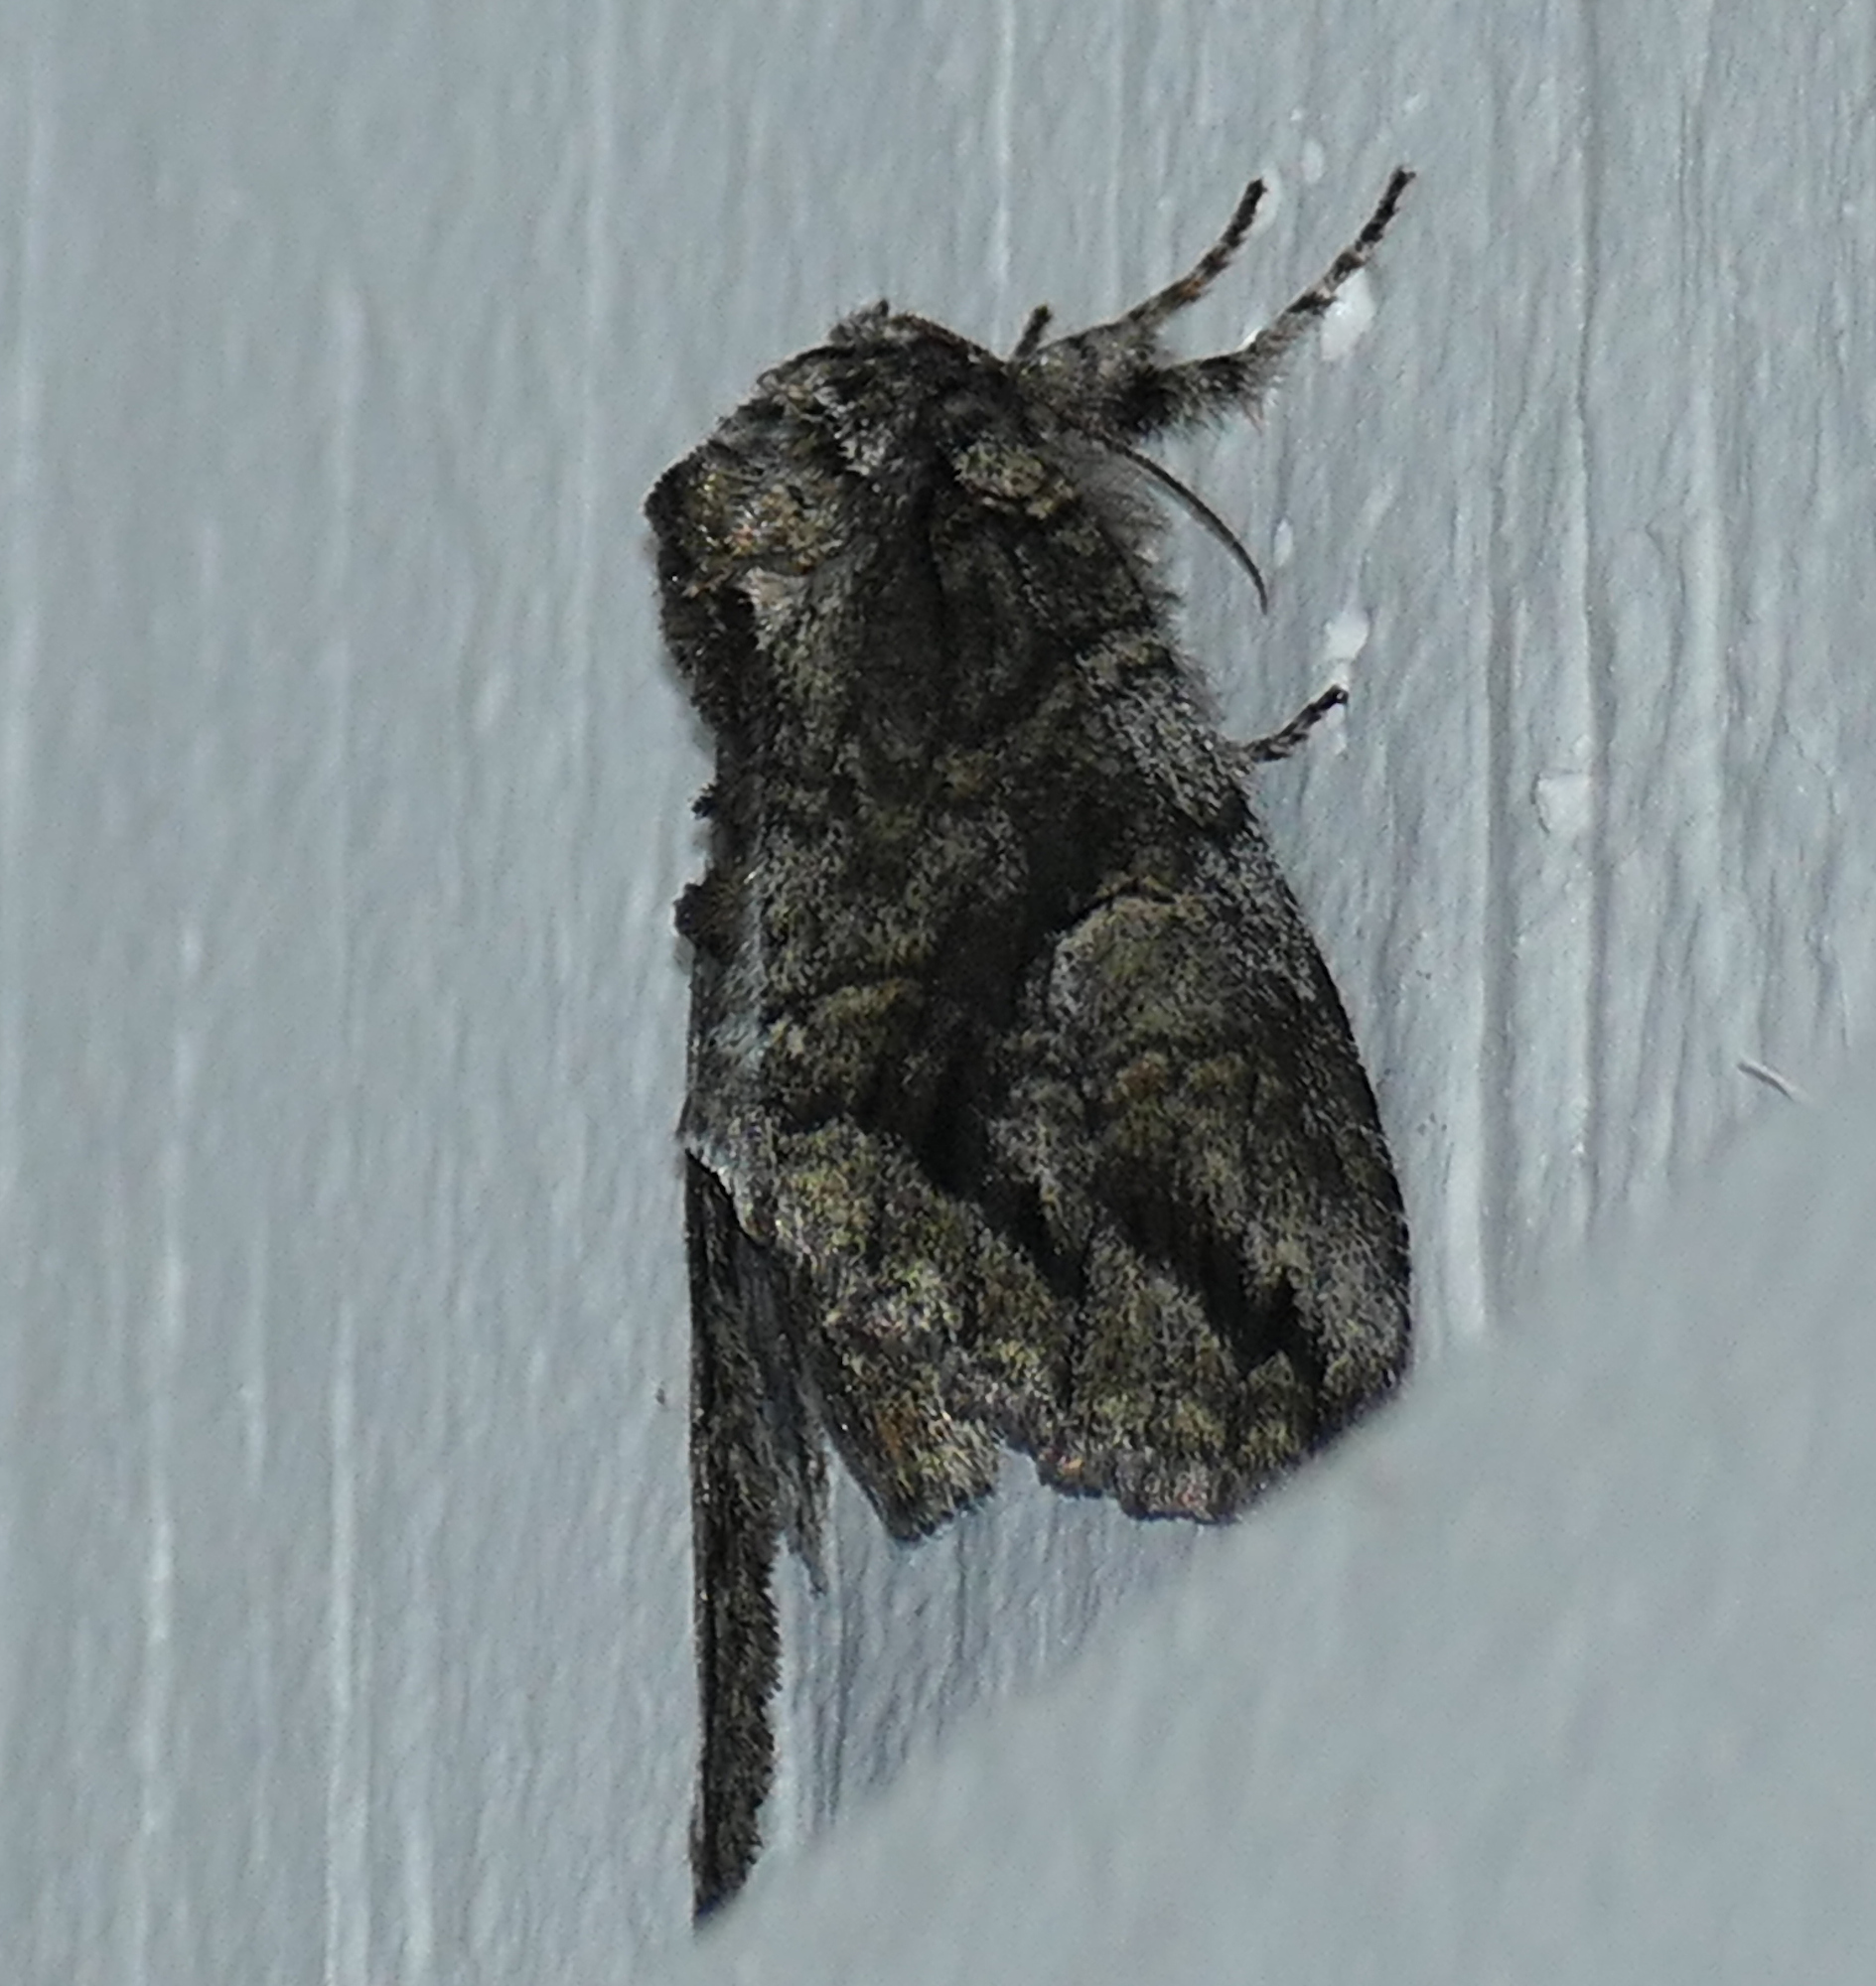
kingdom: Animalia
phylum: Arthropoda
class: Insecta
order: Lepidoptera
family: Notodontidae
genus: Heterocampa
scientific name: Heterocampa averna
